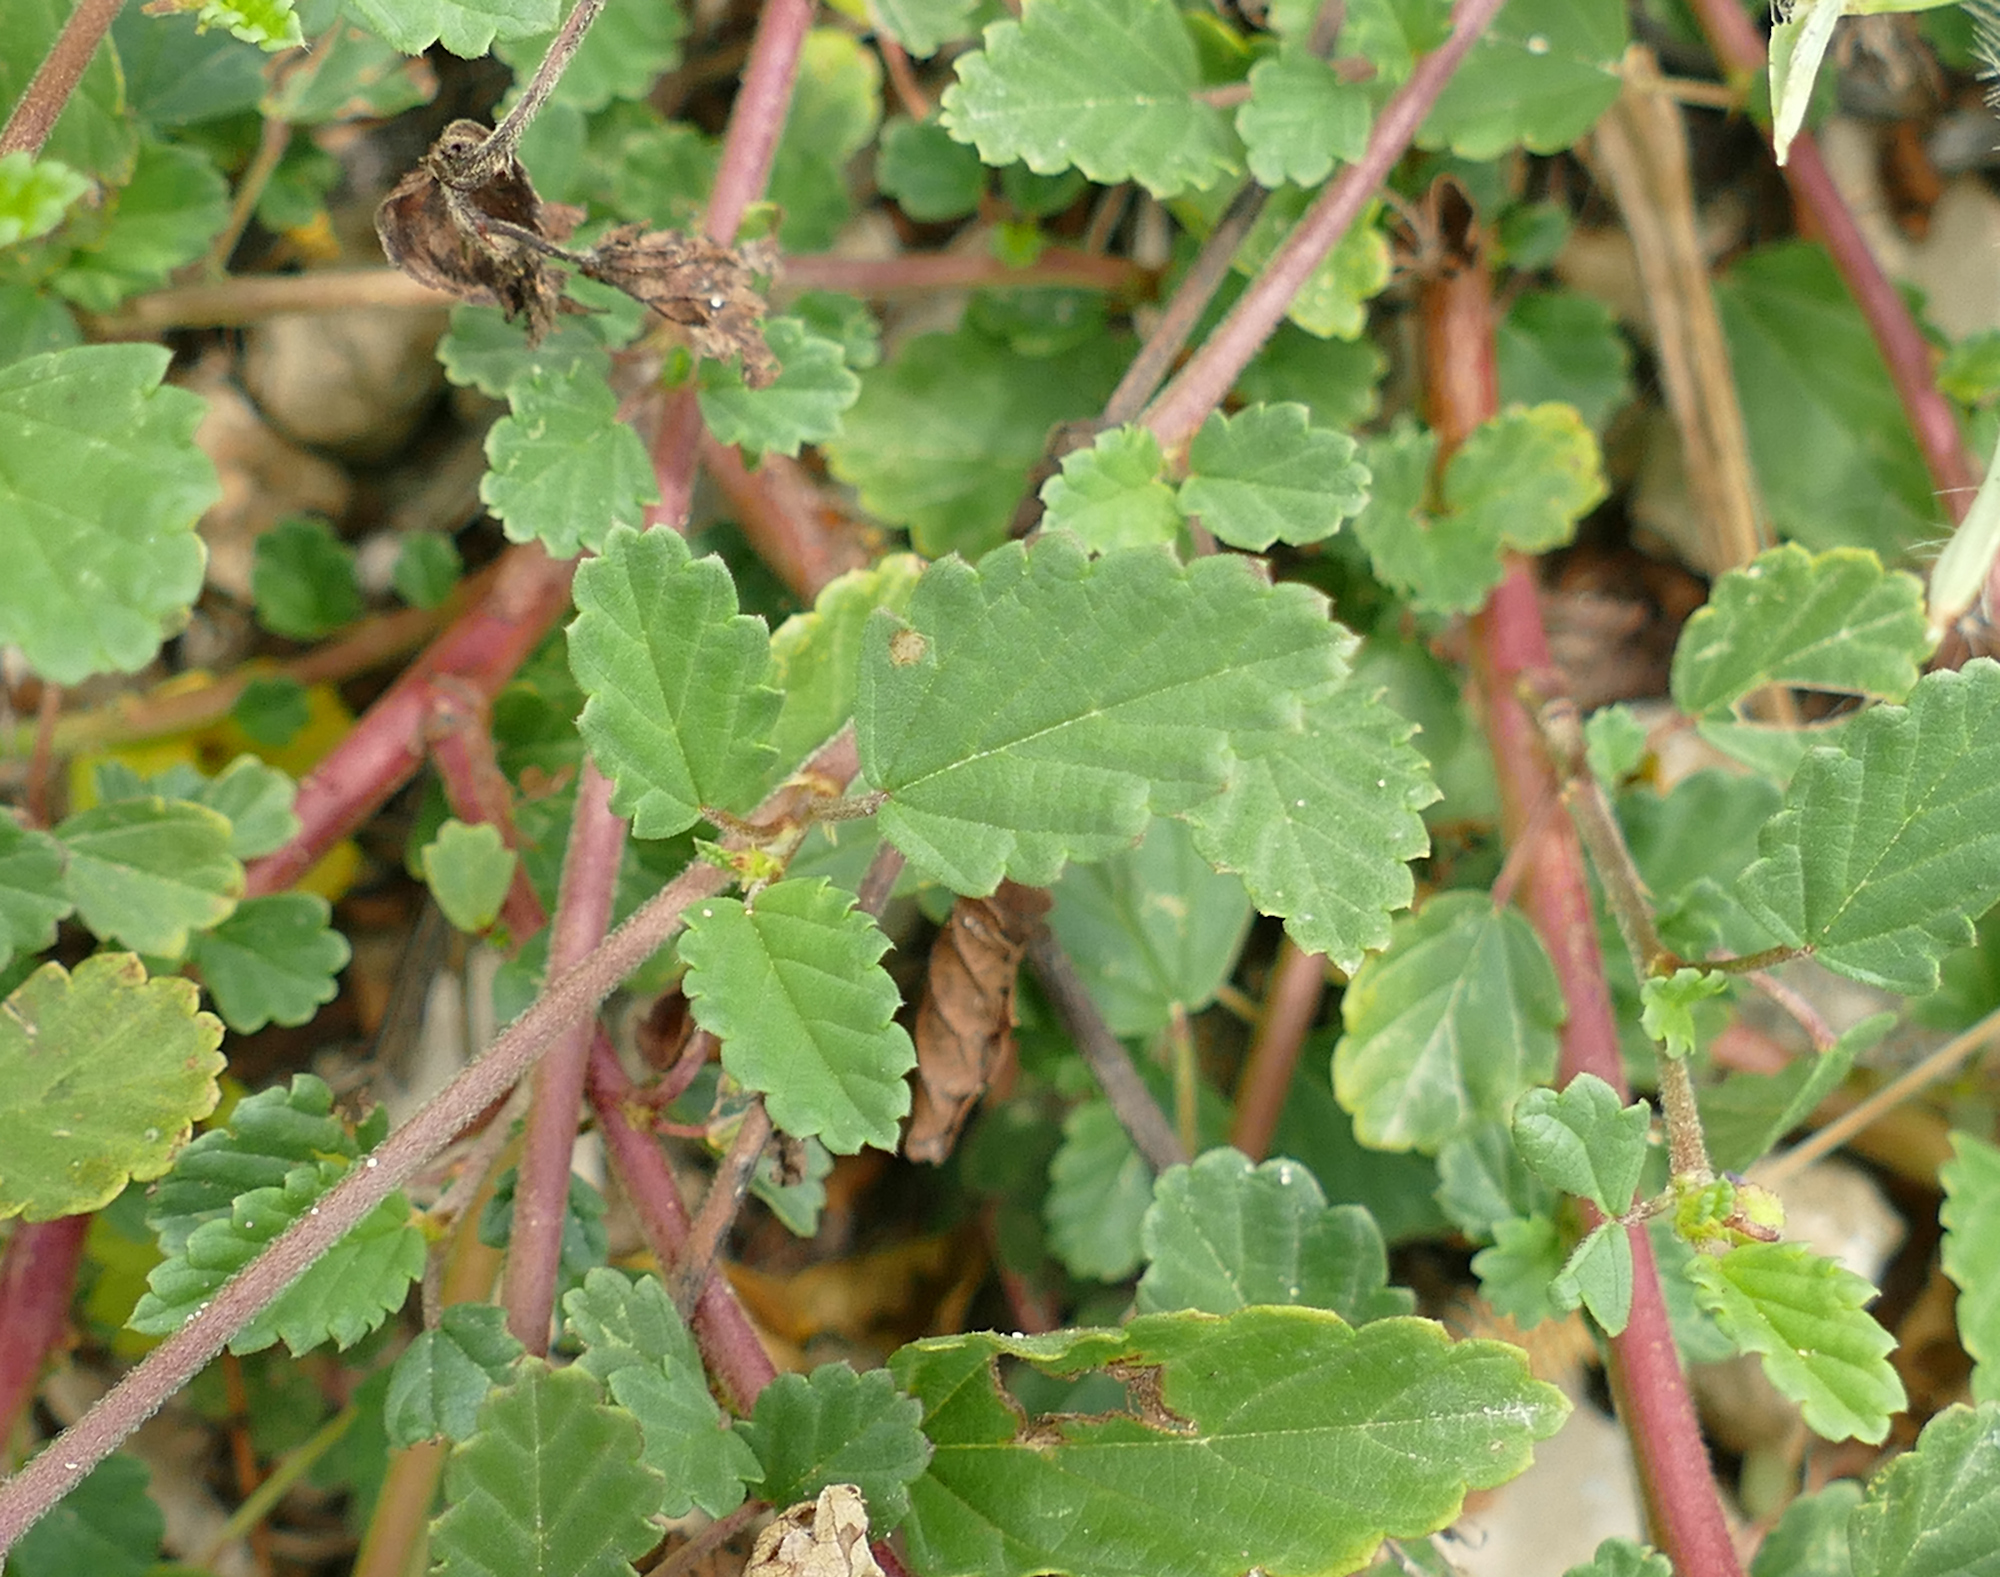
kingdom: Plantae
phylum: Tracheophyta
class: Magnoliopsida
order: Malvales
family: Malvaceae
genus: Melochia
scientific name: Melochia pyramidata
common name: Pyramidflower
